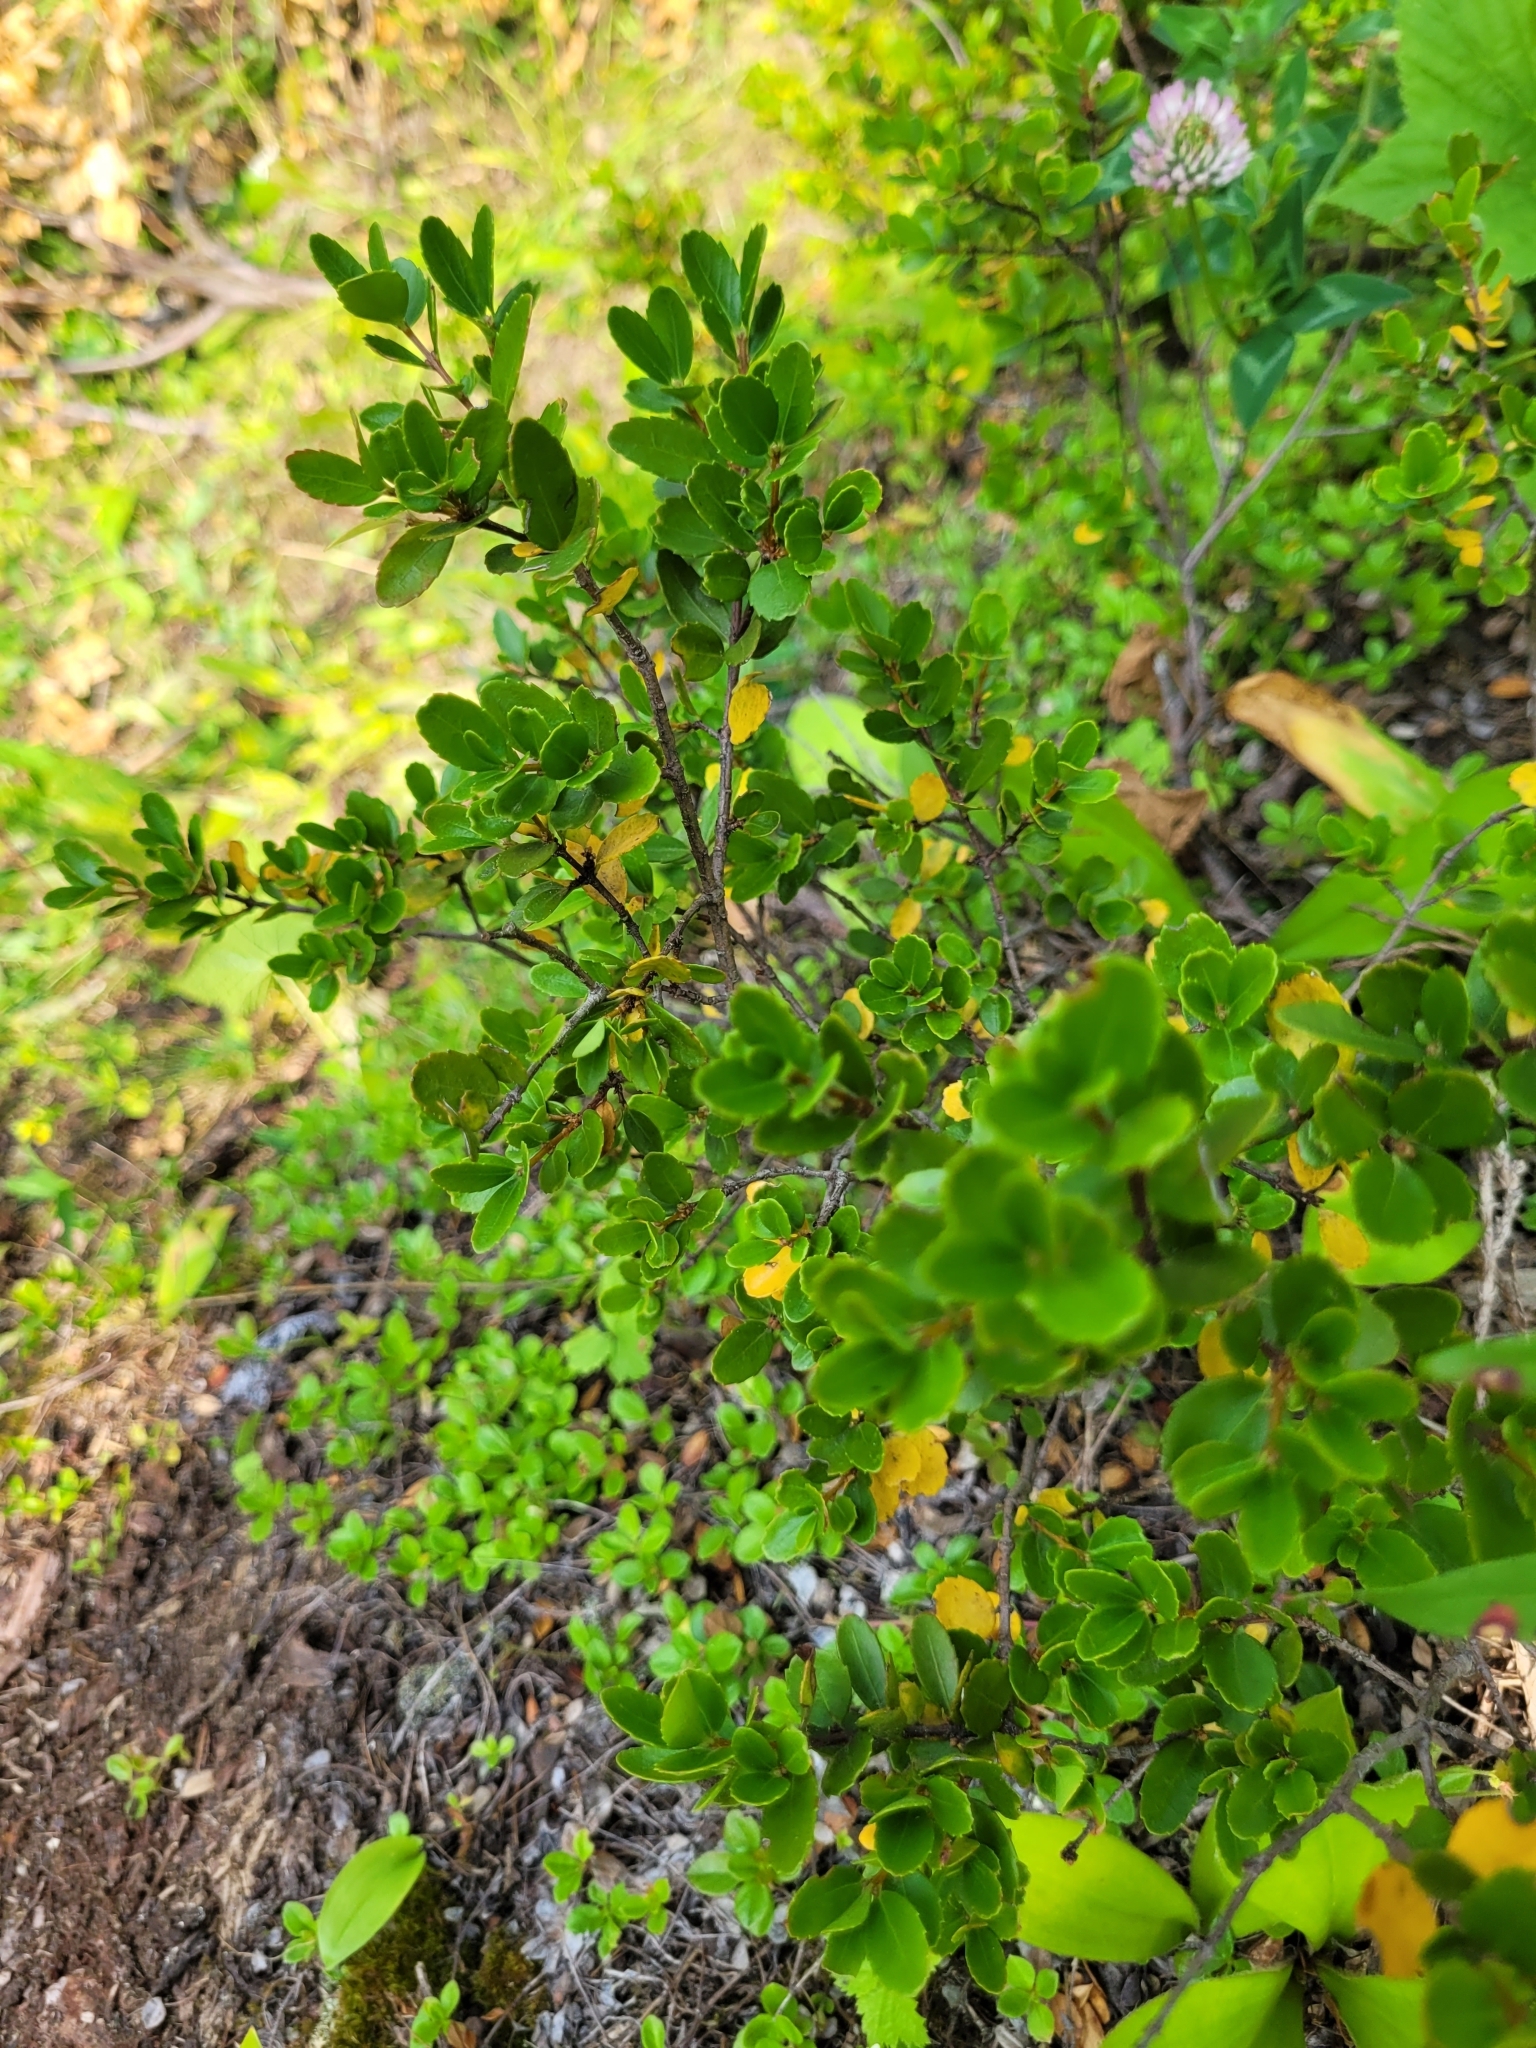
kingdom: Plantae
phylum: Tracheophyta
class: Magnoliopsida
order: Celastrales
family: Celastraceae
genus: Paxistima
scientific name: Paxistima myrsinites
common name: Mountain-lover
